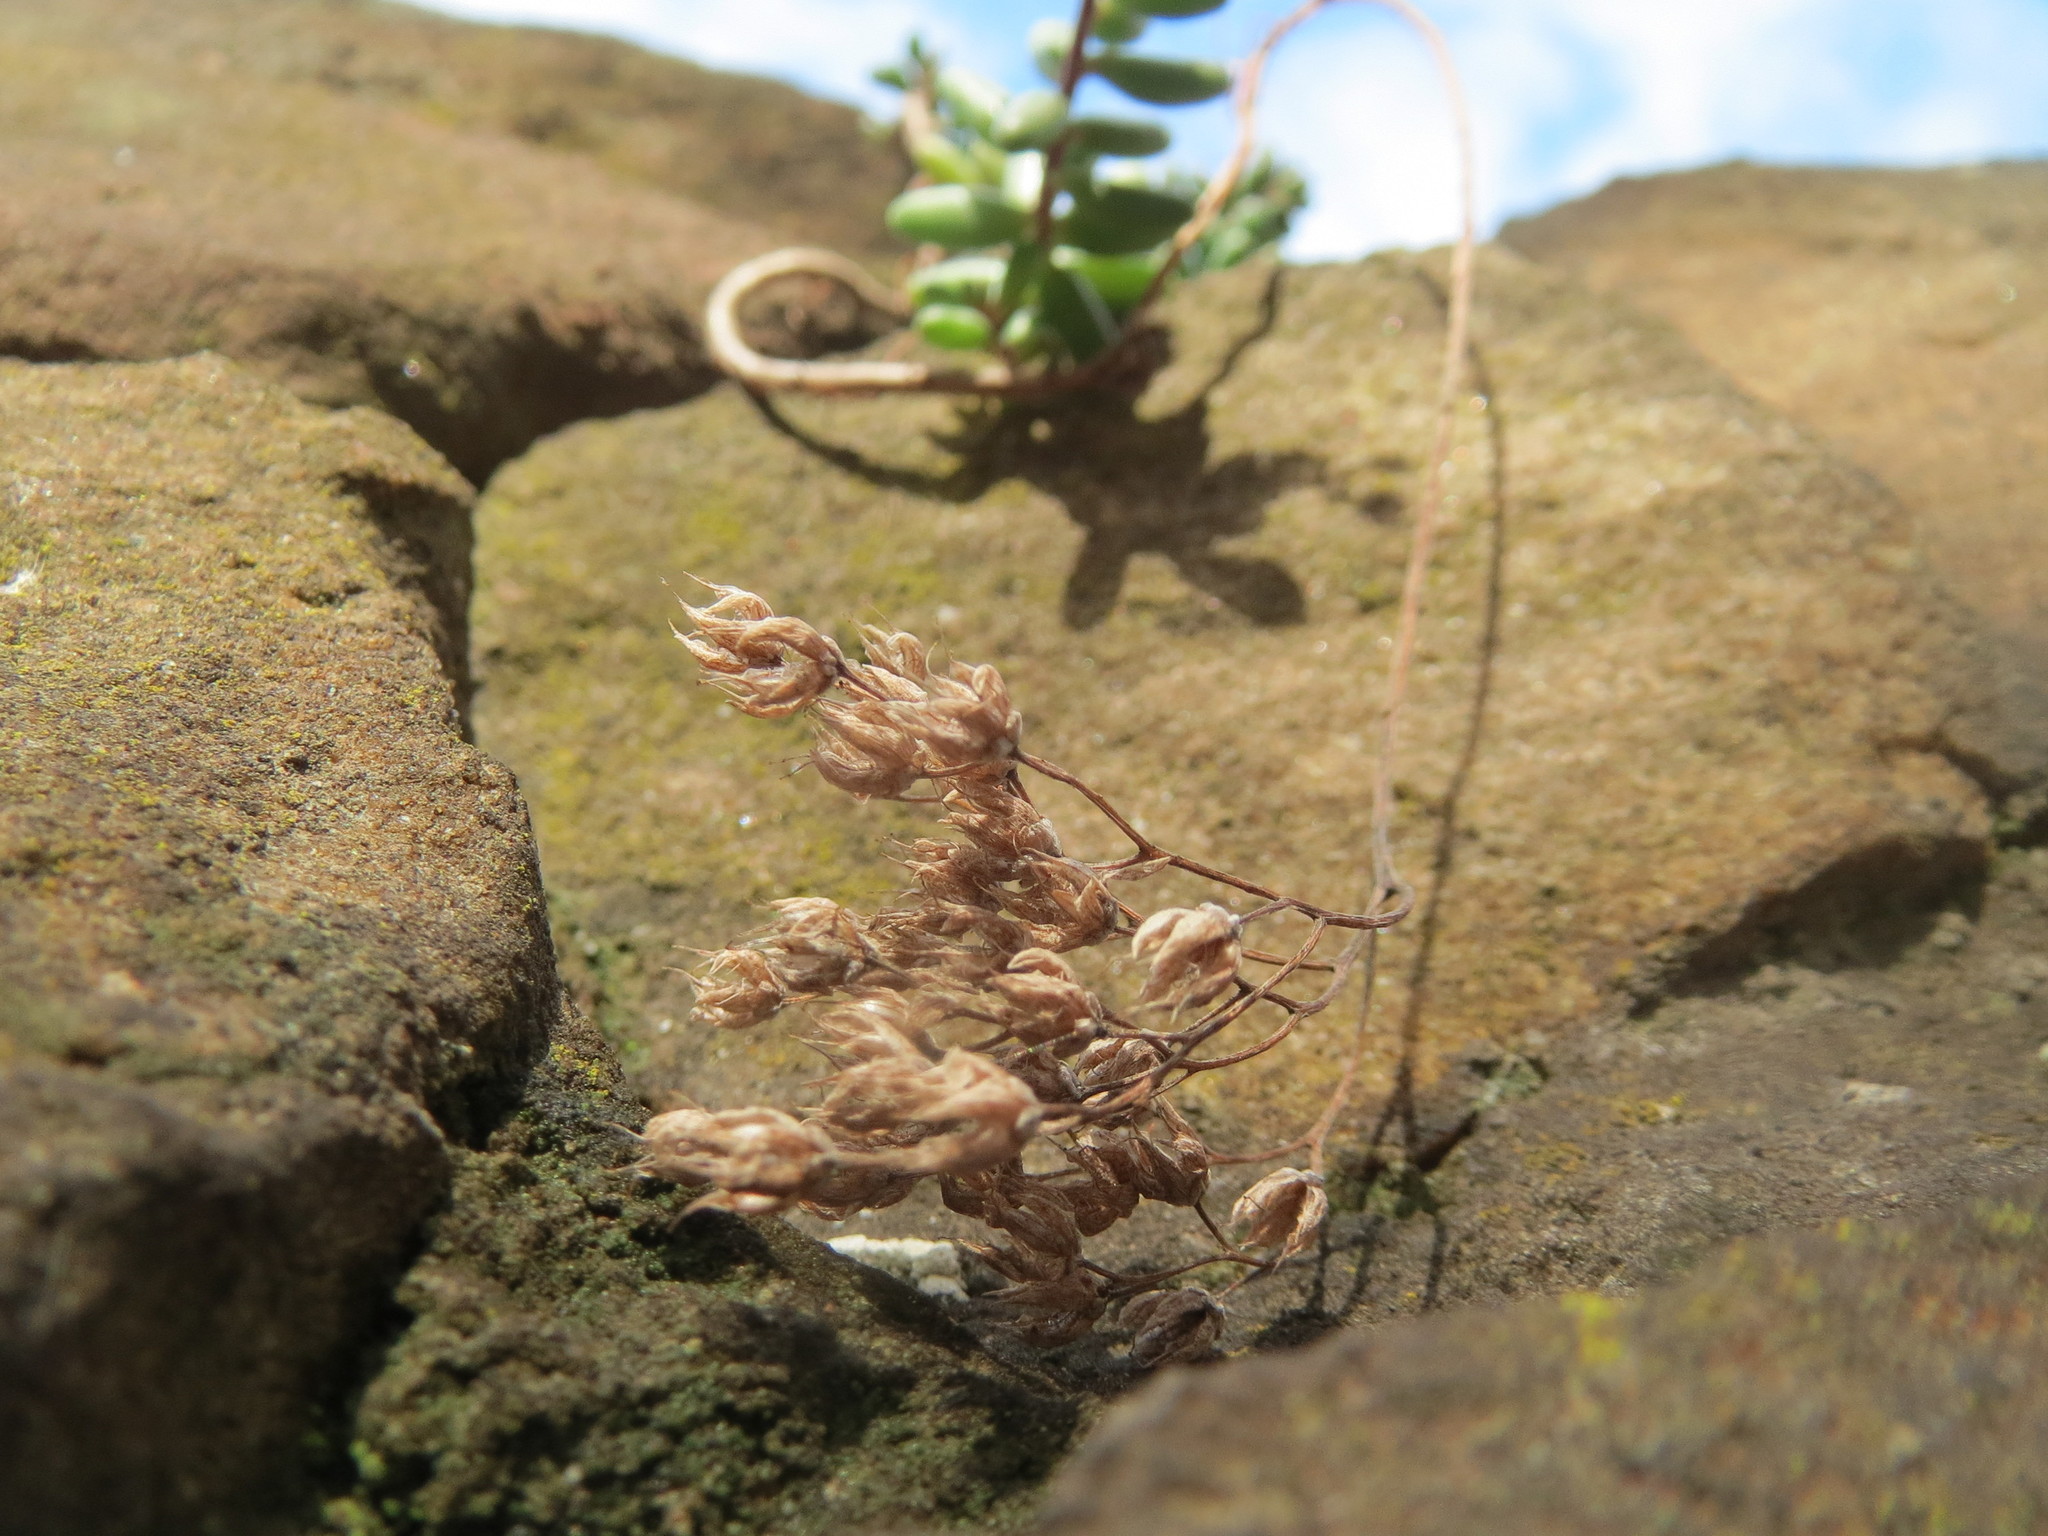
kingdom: Plantae
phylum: Tracheophyta
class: Magnoliopsida
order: Saxifragales
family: Crassulaceae
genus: Sedum
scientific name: Sedum album
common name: White stonecrop
